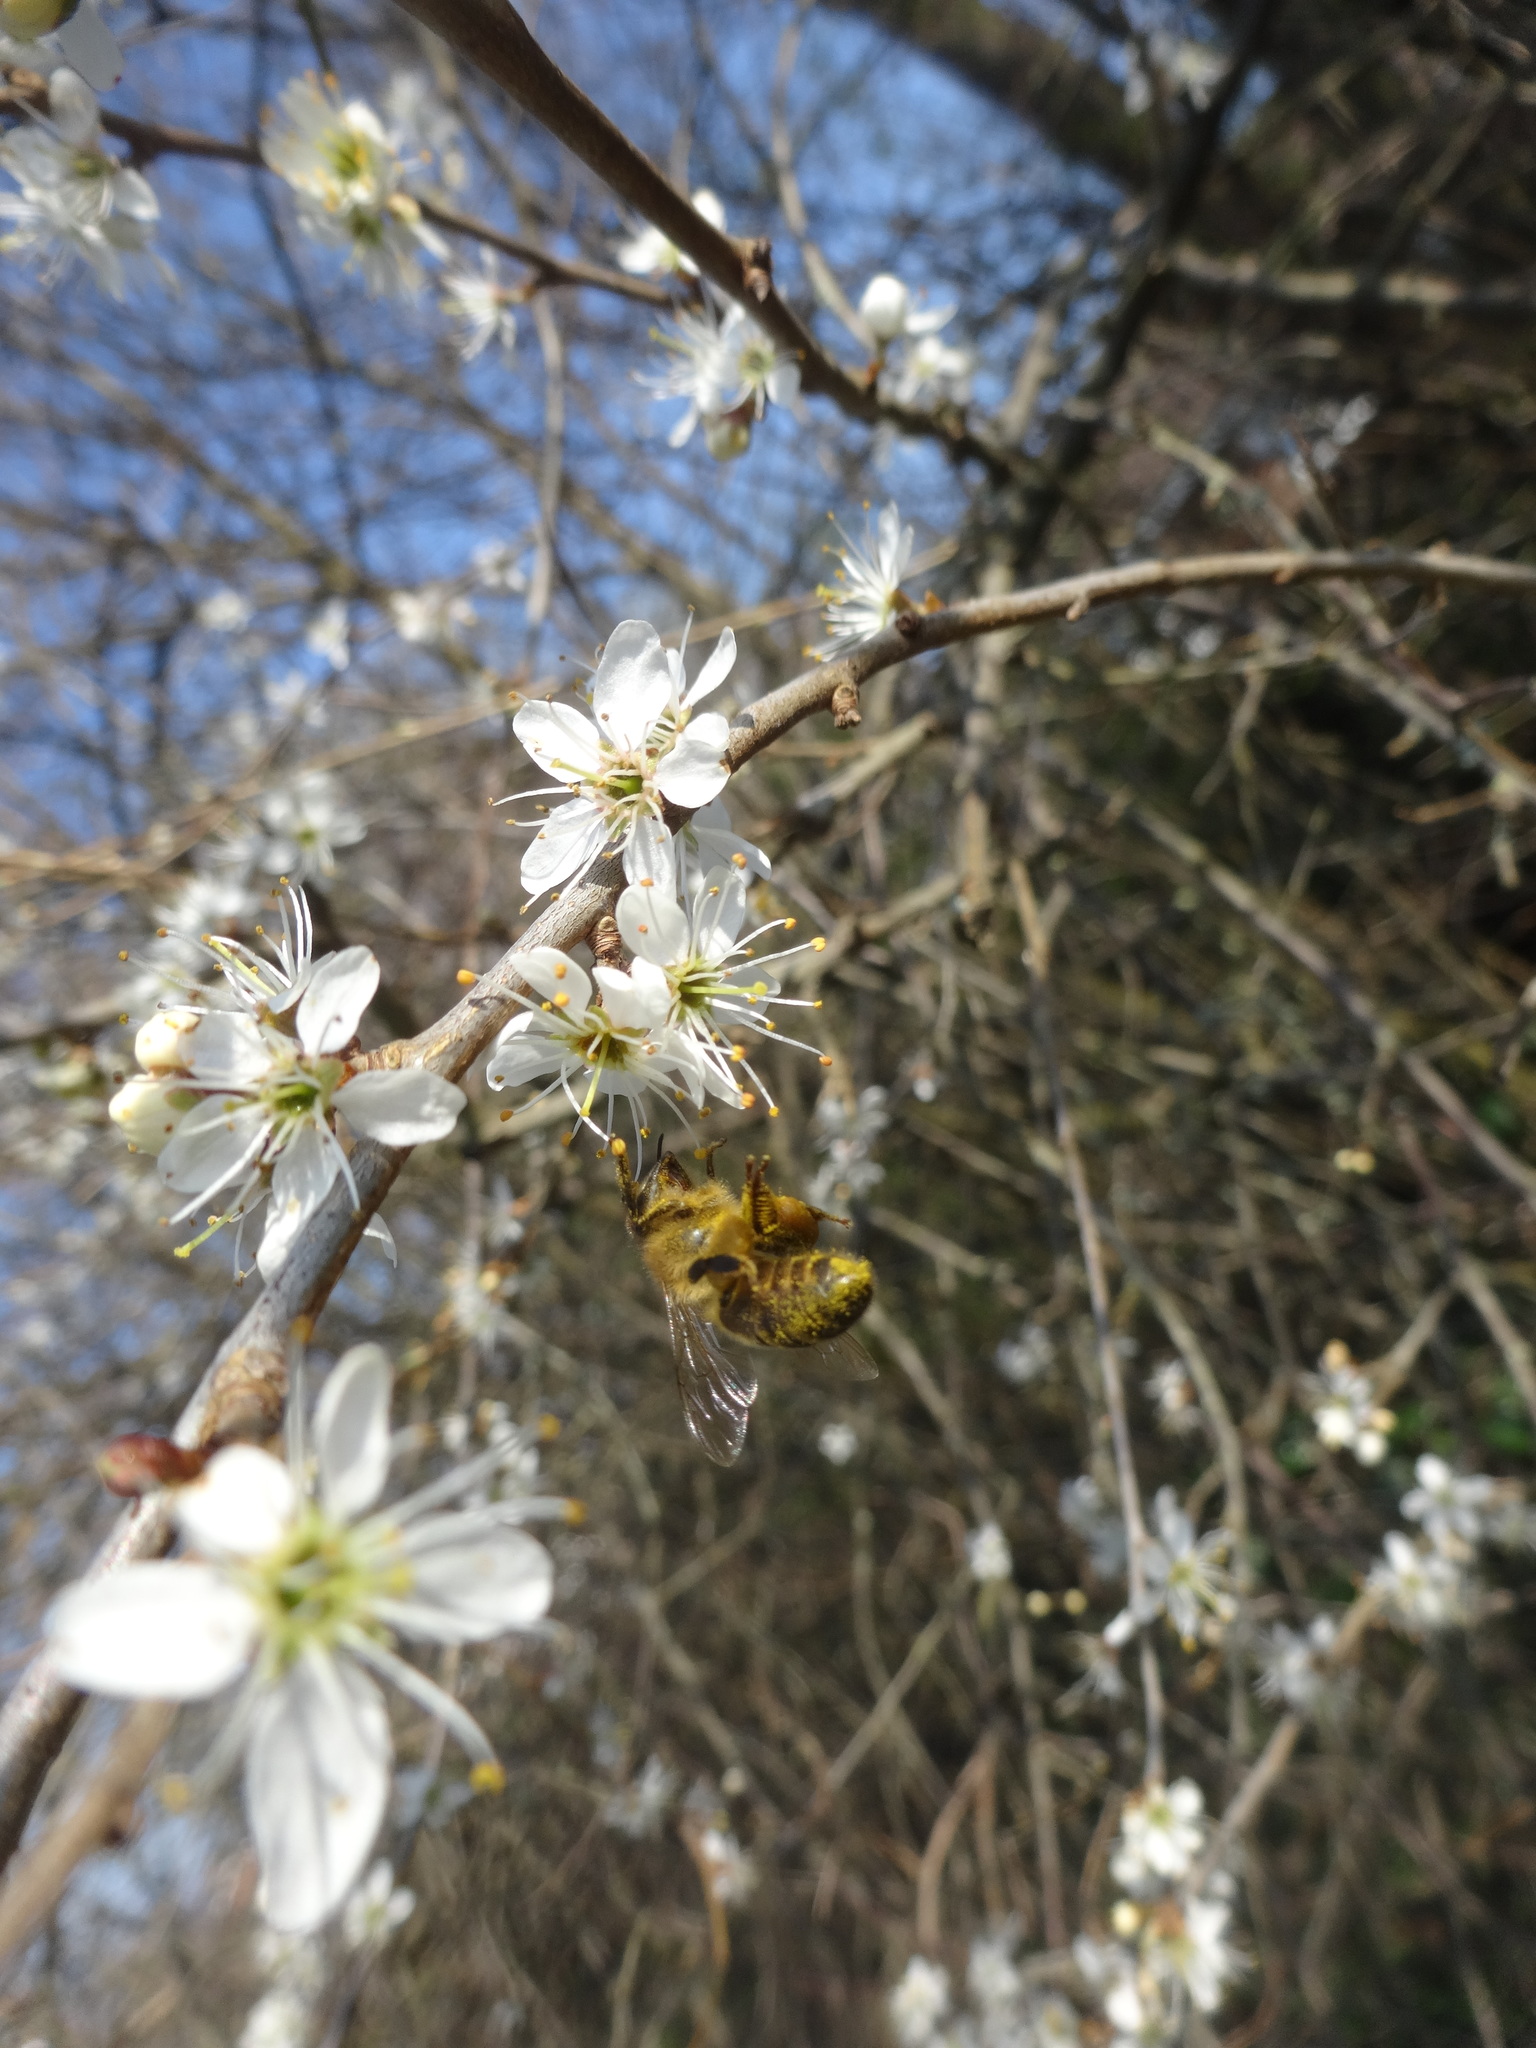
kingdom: Animalia
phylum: Arthropoda
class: Insecta
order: Hymenoptera
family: Apidae
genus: Apis
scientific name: Apis mellifera
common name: Honey bee
